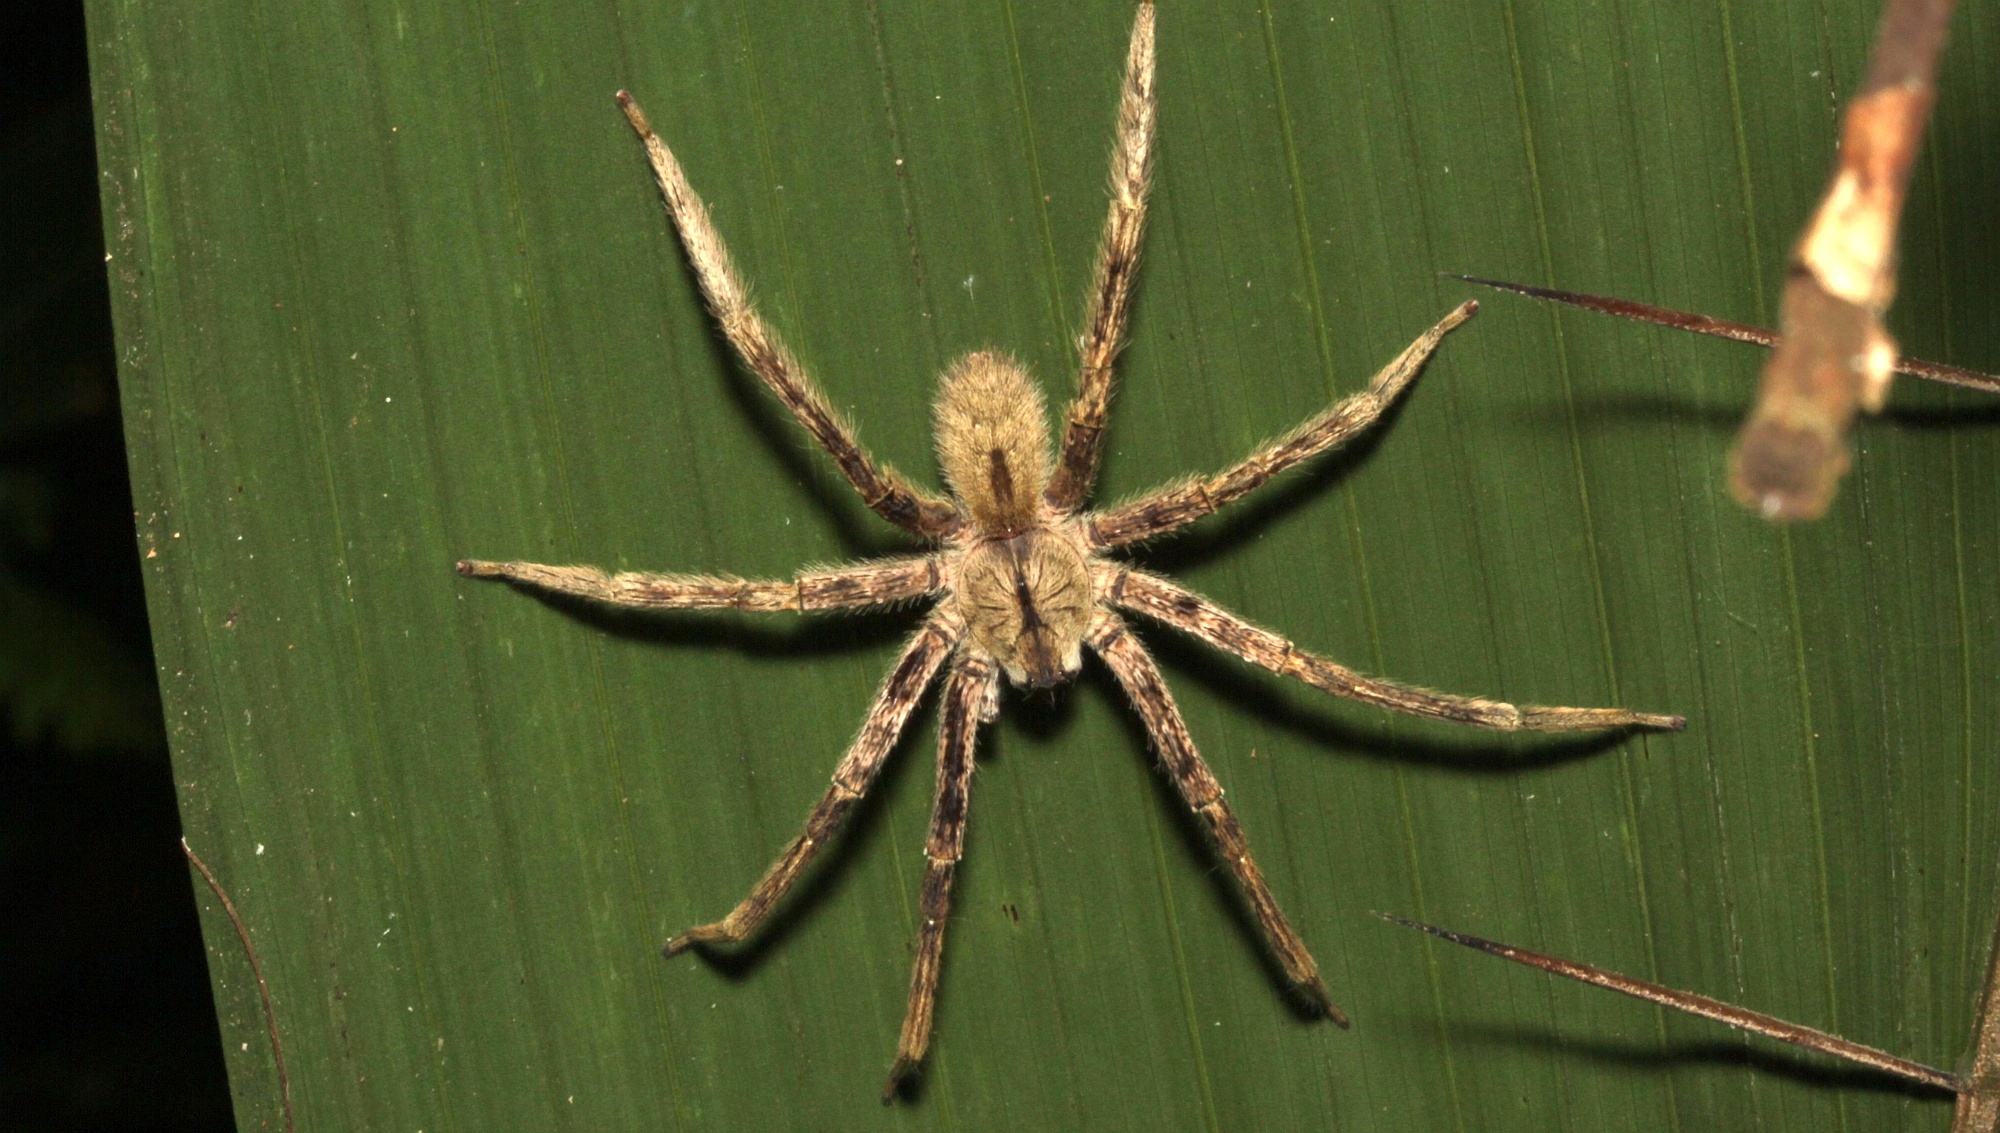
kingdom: Animalia
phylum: Arthropoda
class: Arachnida
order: Araneae
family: Ctenidae
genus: Phoneutria
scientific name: Phoneutria boliviensis
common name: Wandering spiders
